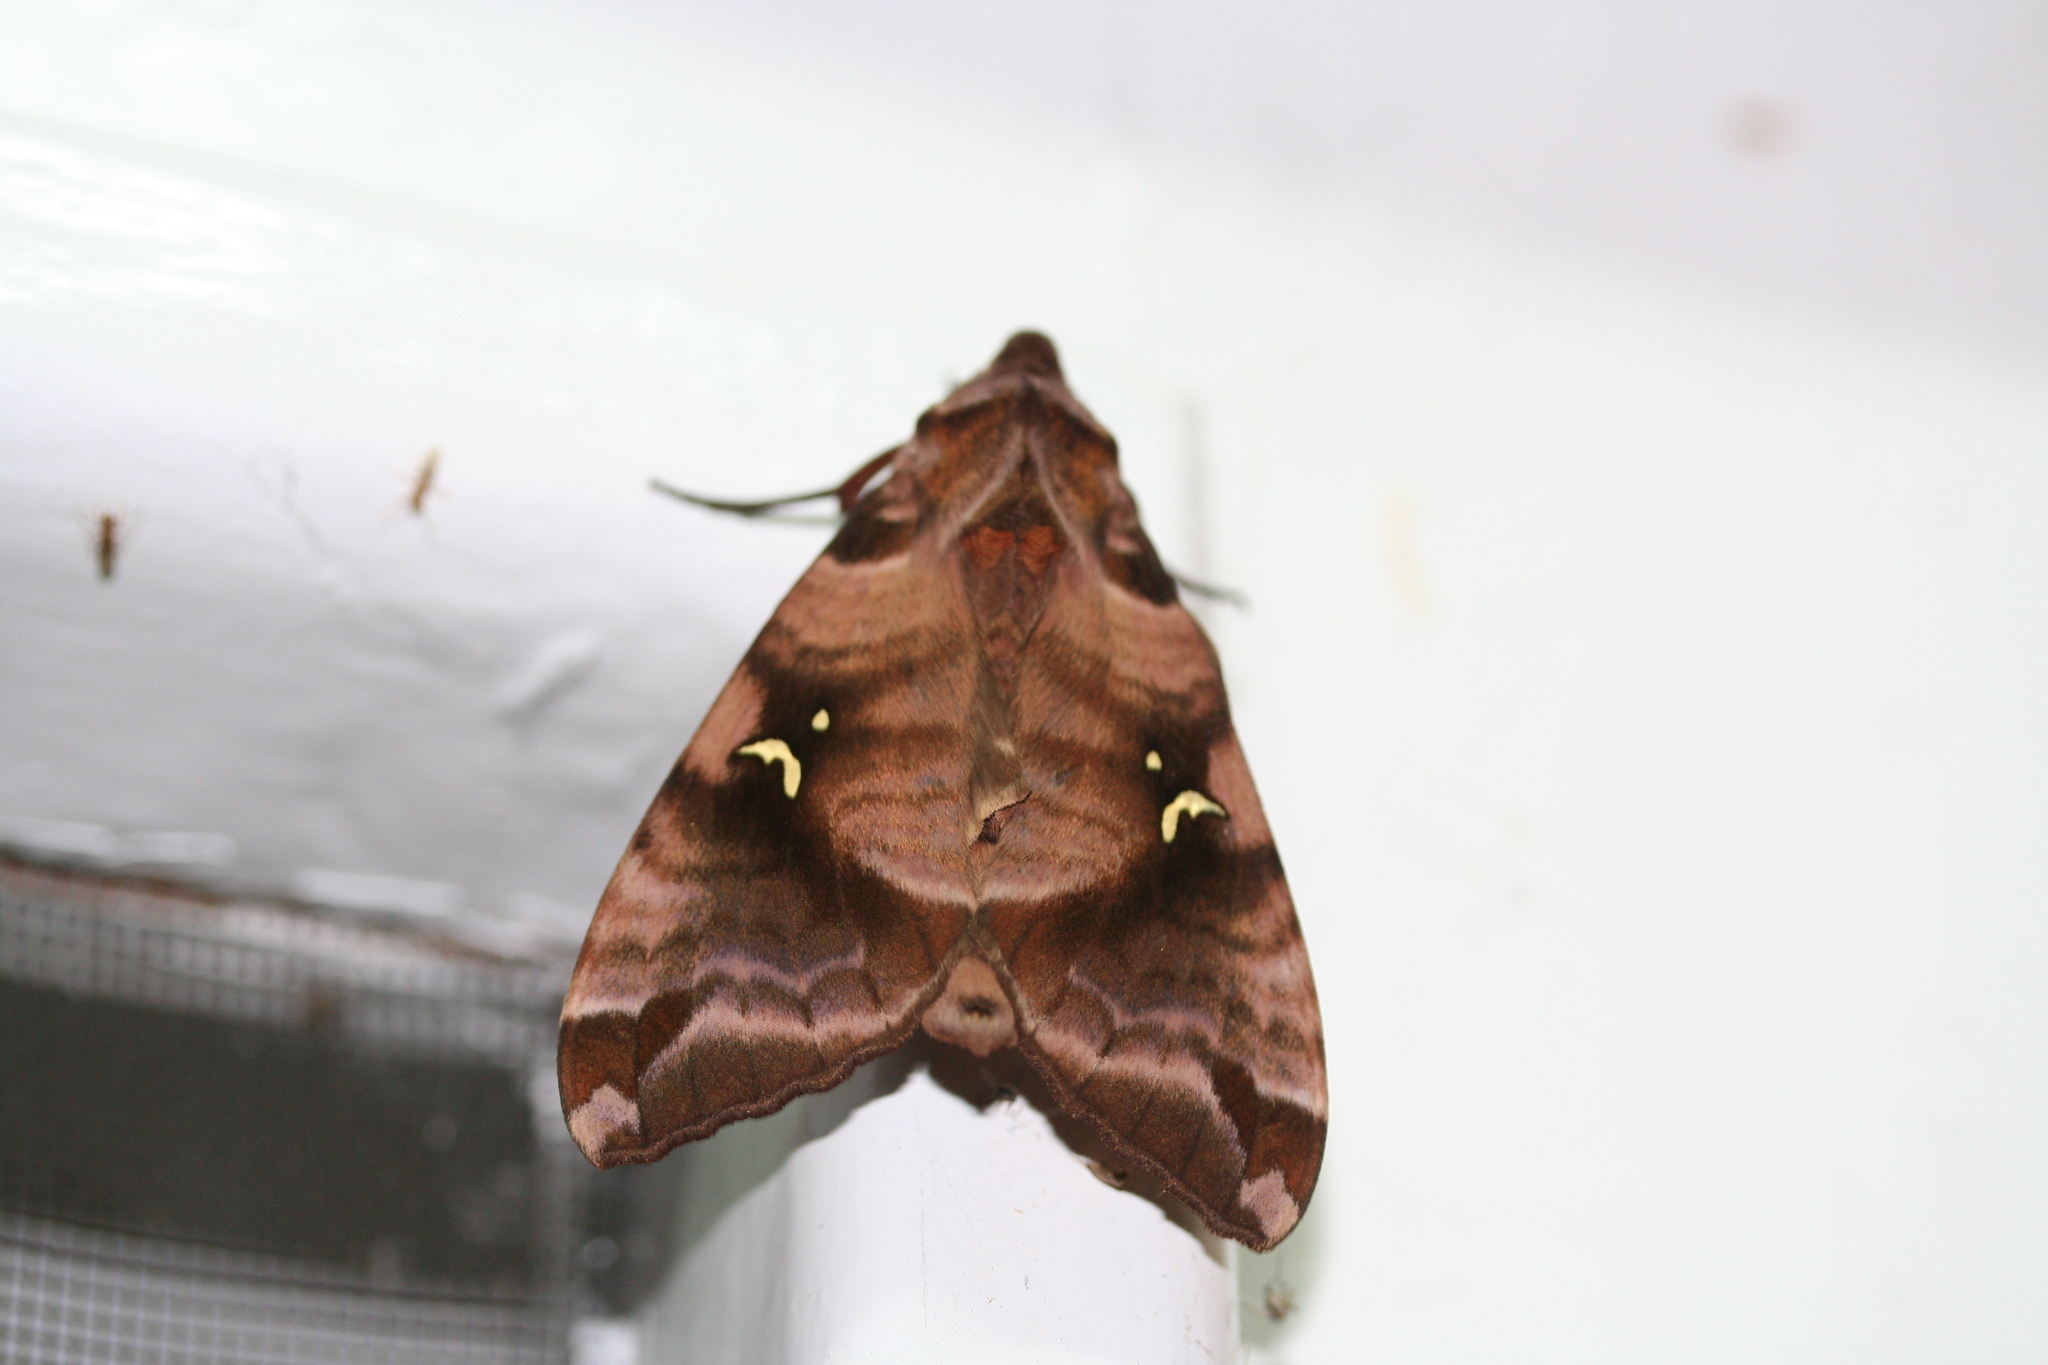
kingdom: Animalia
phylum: Arthropoda
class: Insecta
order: Lepidoptera
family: Sphingidae
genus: Maassenia
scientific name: Maassenia heydeni
